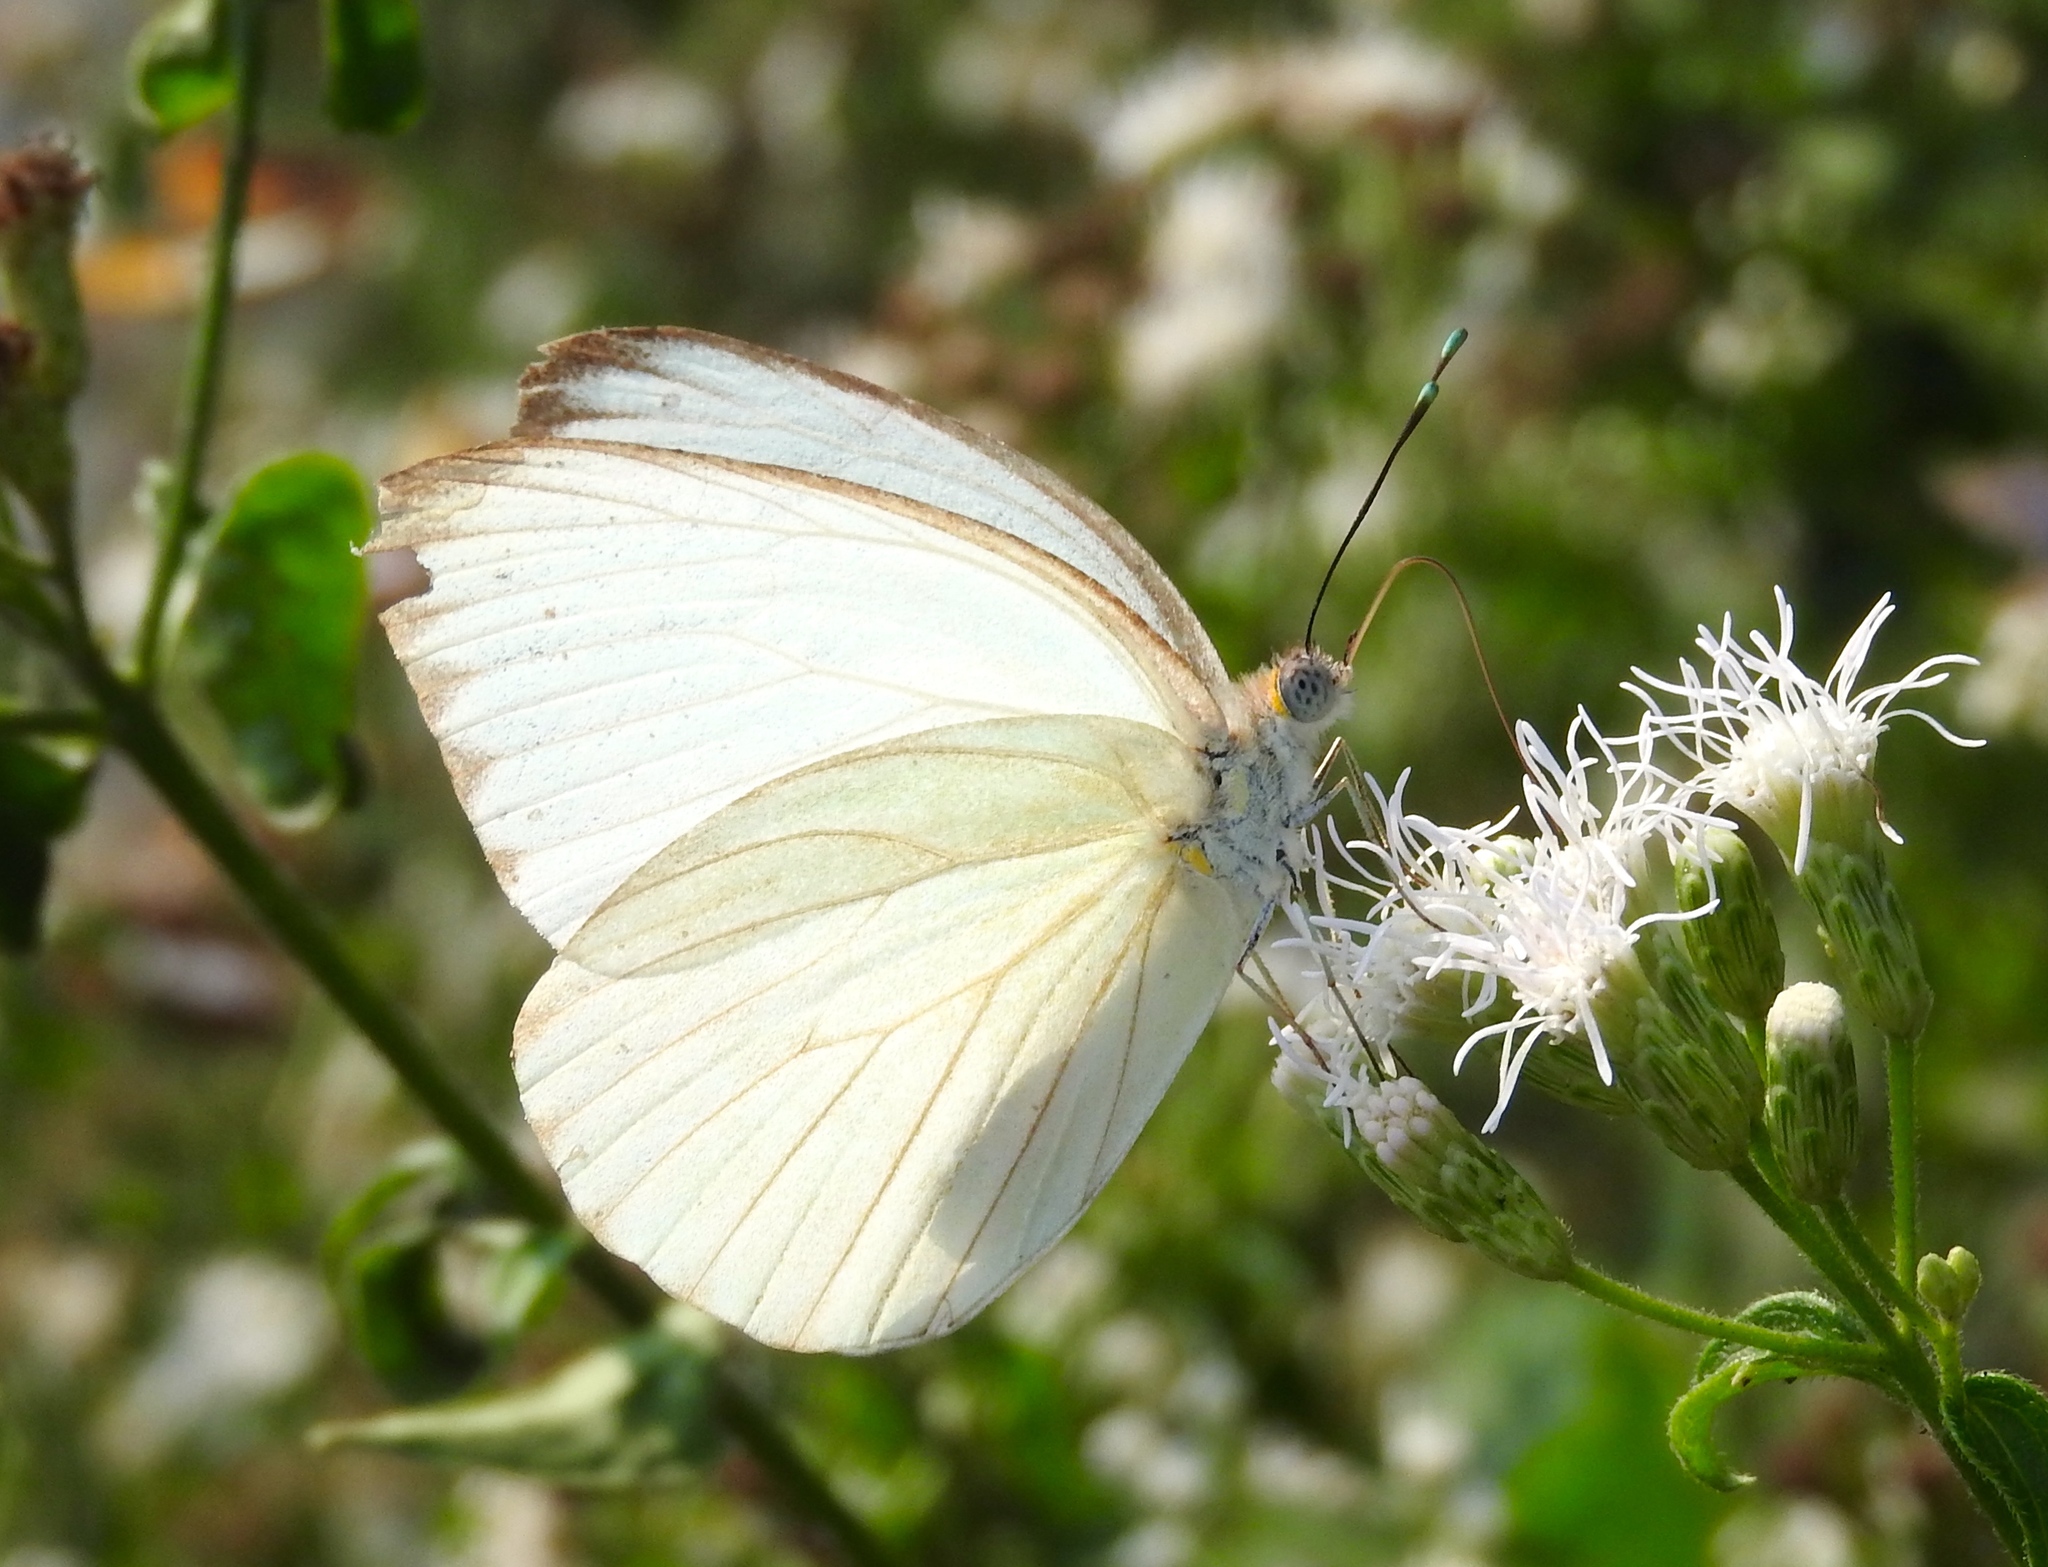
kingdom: Animalia
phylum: Arthropoda
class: Insecta
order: Lepidoptera
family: Pieridae
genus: Ascia
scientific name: Ascia monuste
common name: Great southern white
